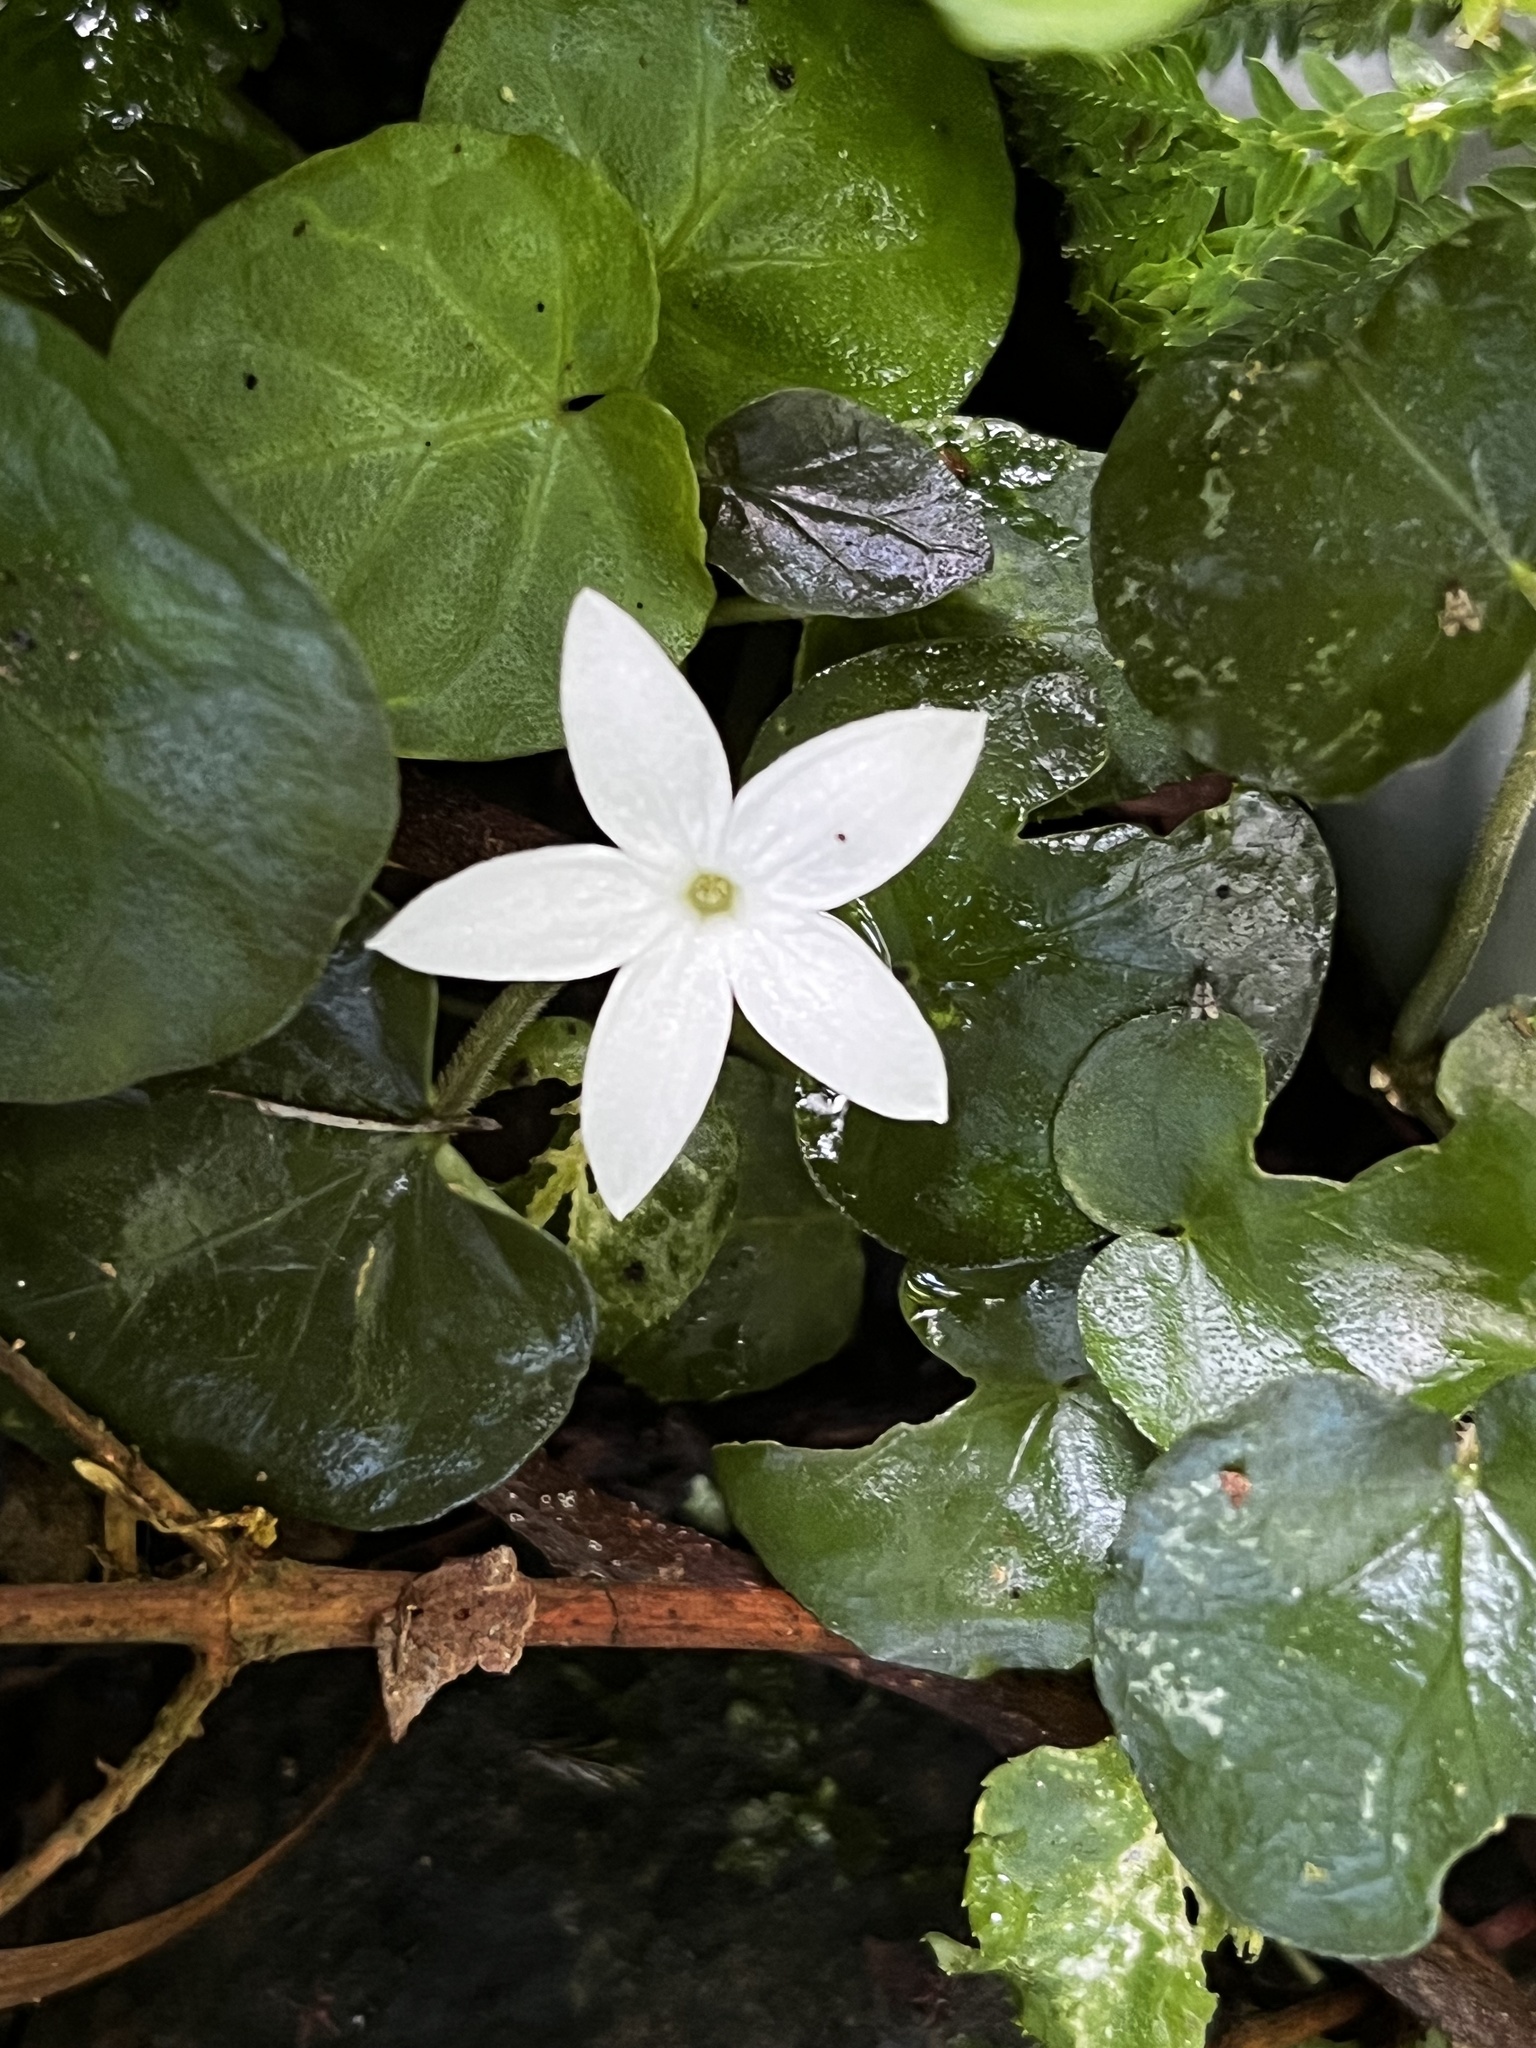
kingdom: Plantae
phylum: Tracheophyta
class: Magnoliopsida
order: Gentianales
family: Rubiaceae
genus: Geophila
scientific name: Geophila herbacea
